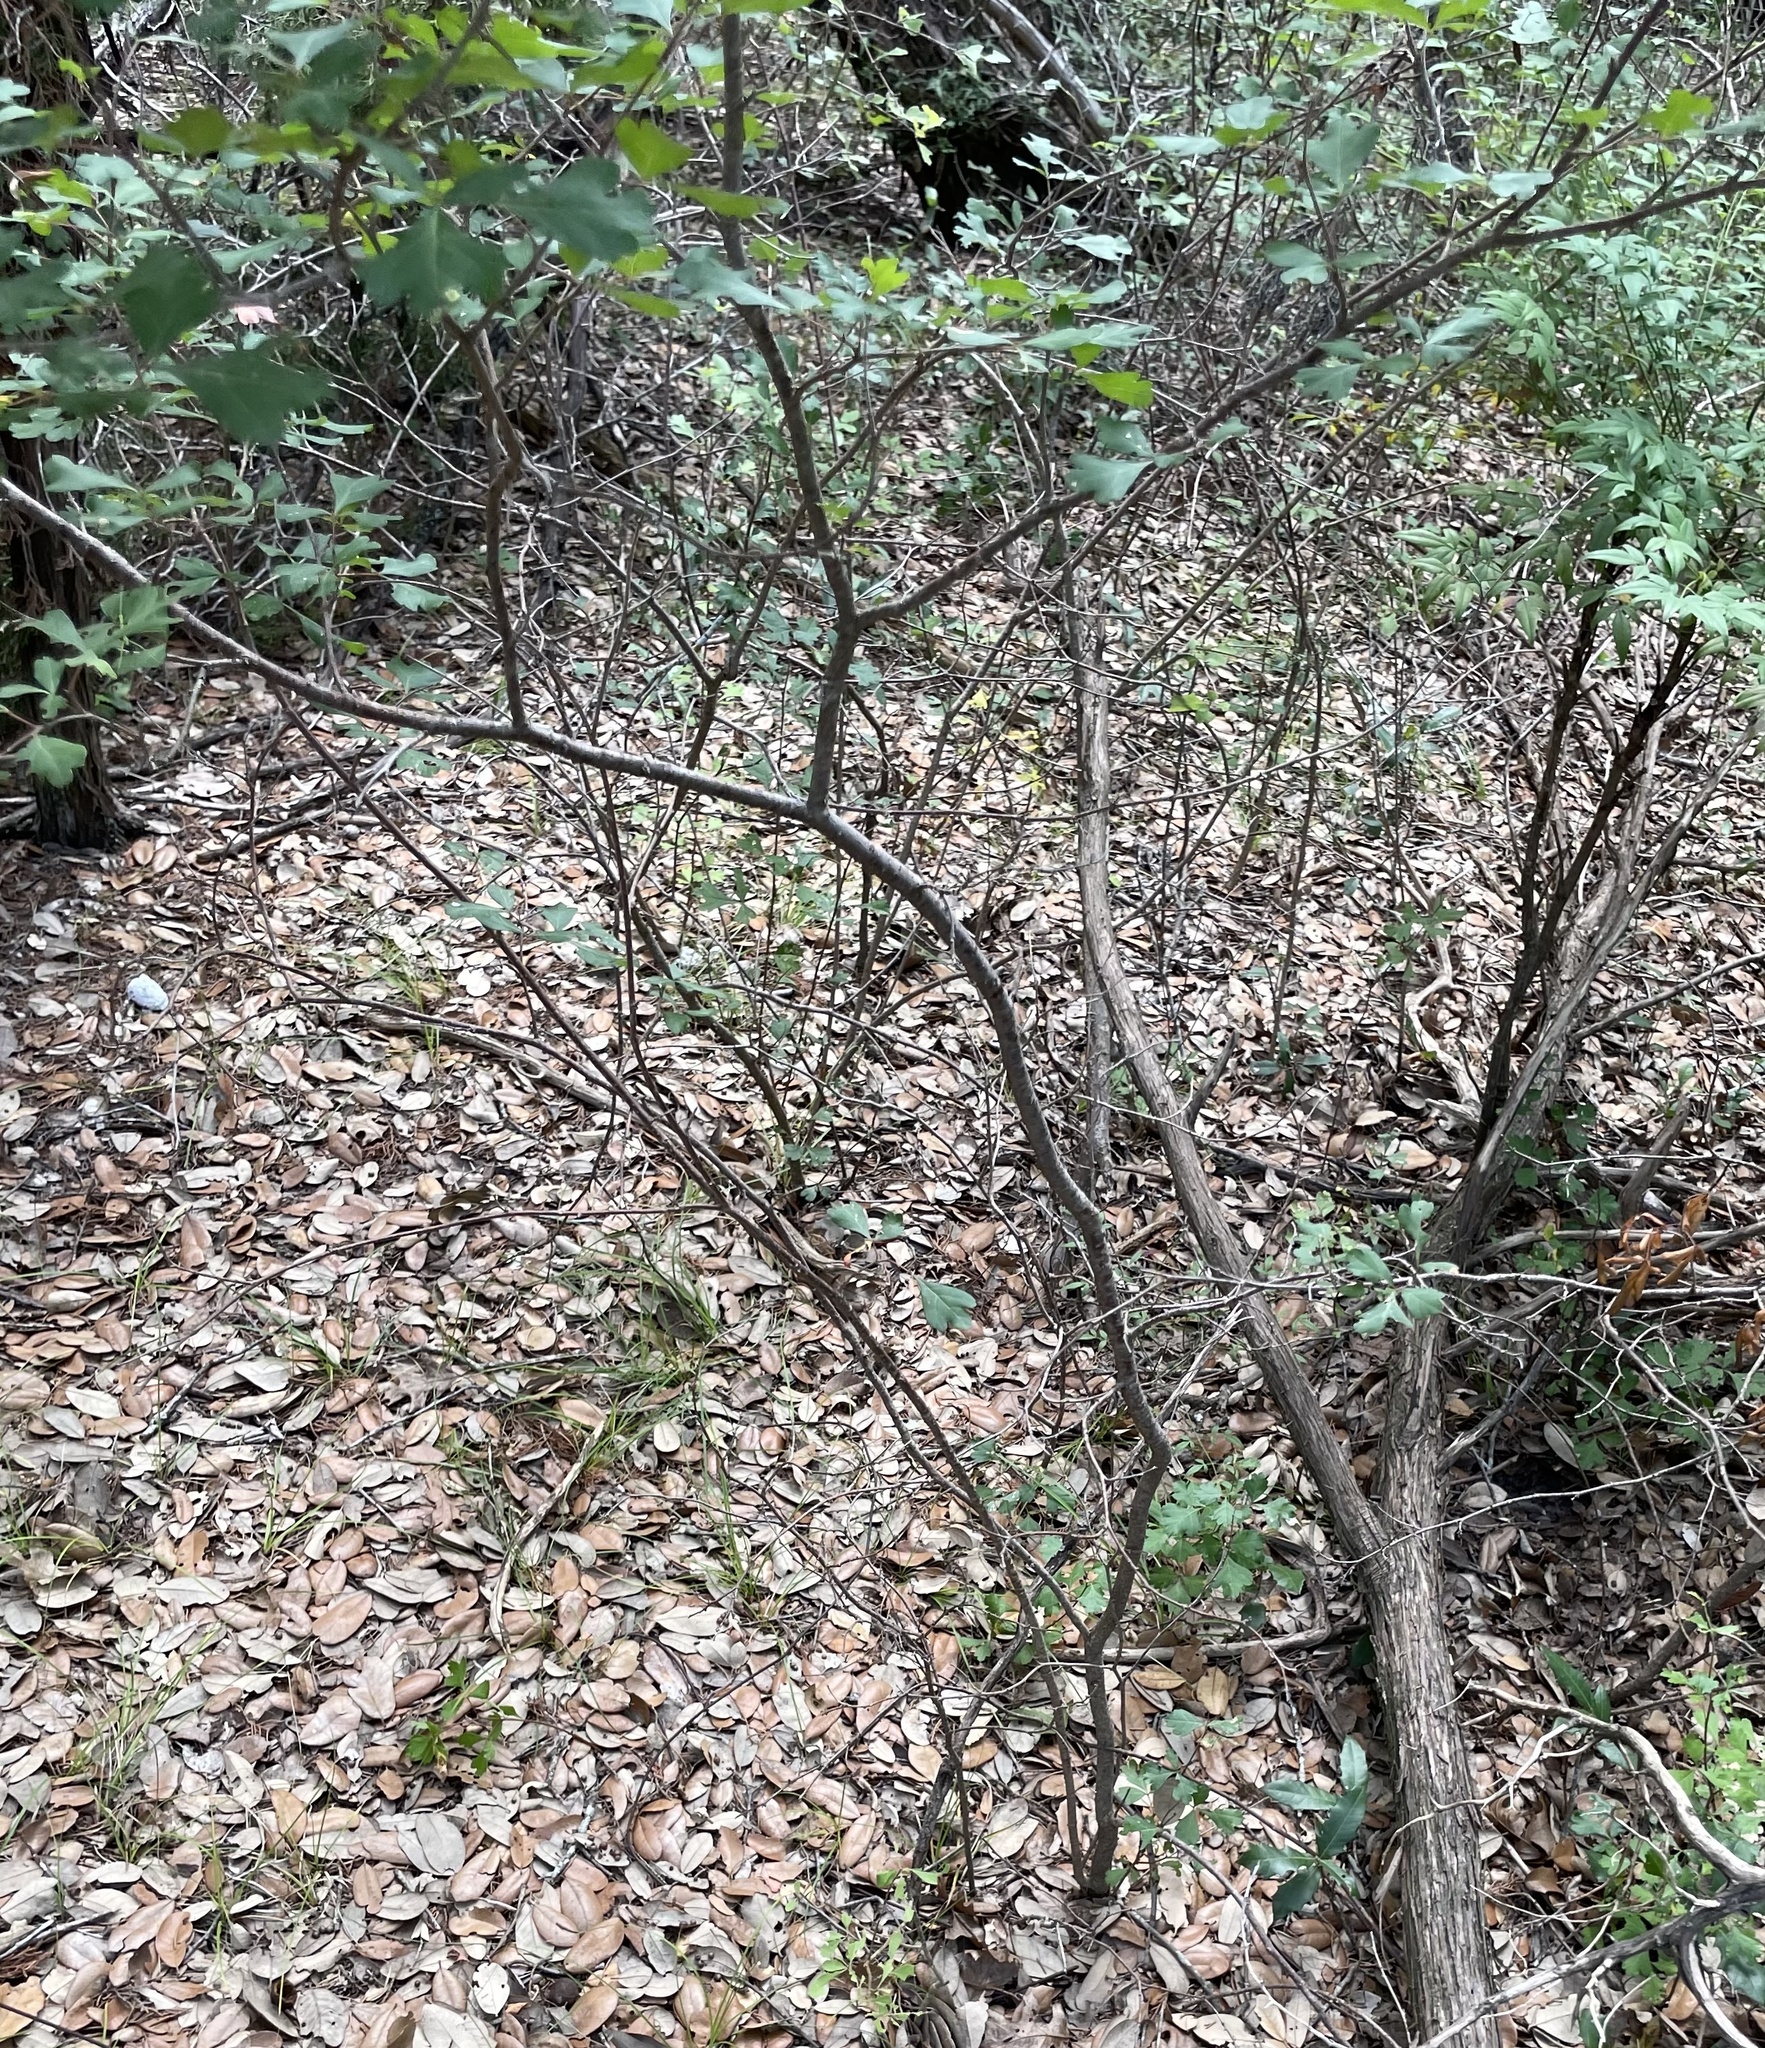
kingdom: Plantae
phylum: Tracheophyta
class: Magnoliopsida
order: Sapindales
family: Anacardiaceae
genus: Rhus
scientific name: Rhus aromatica
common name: Aromatic sumac
